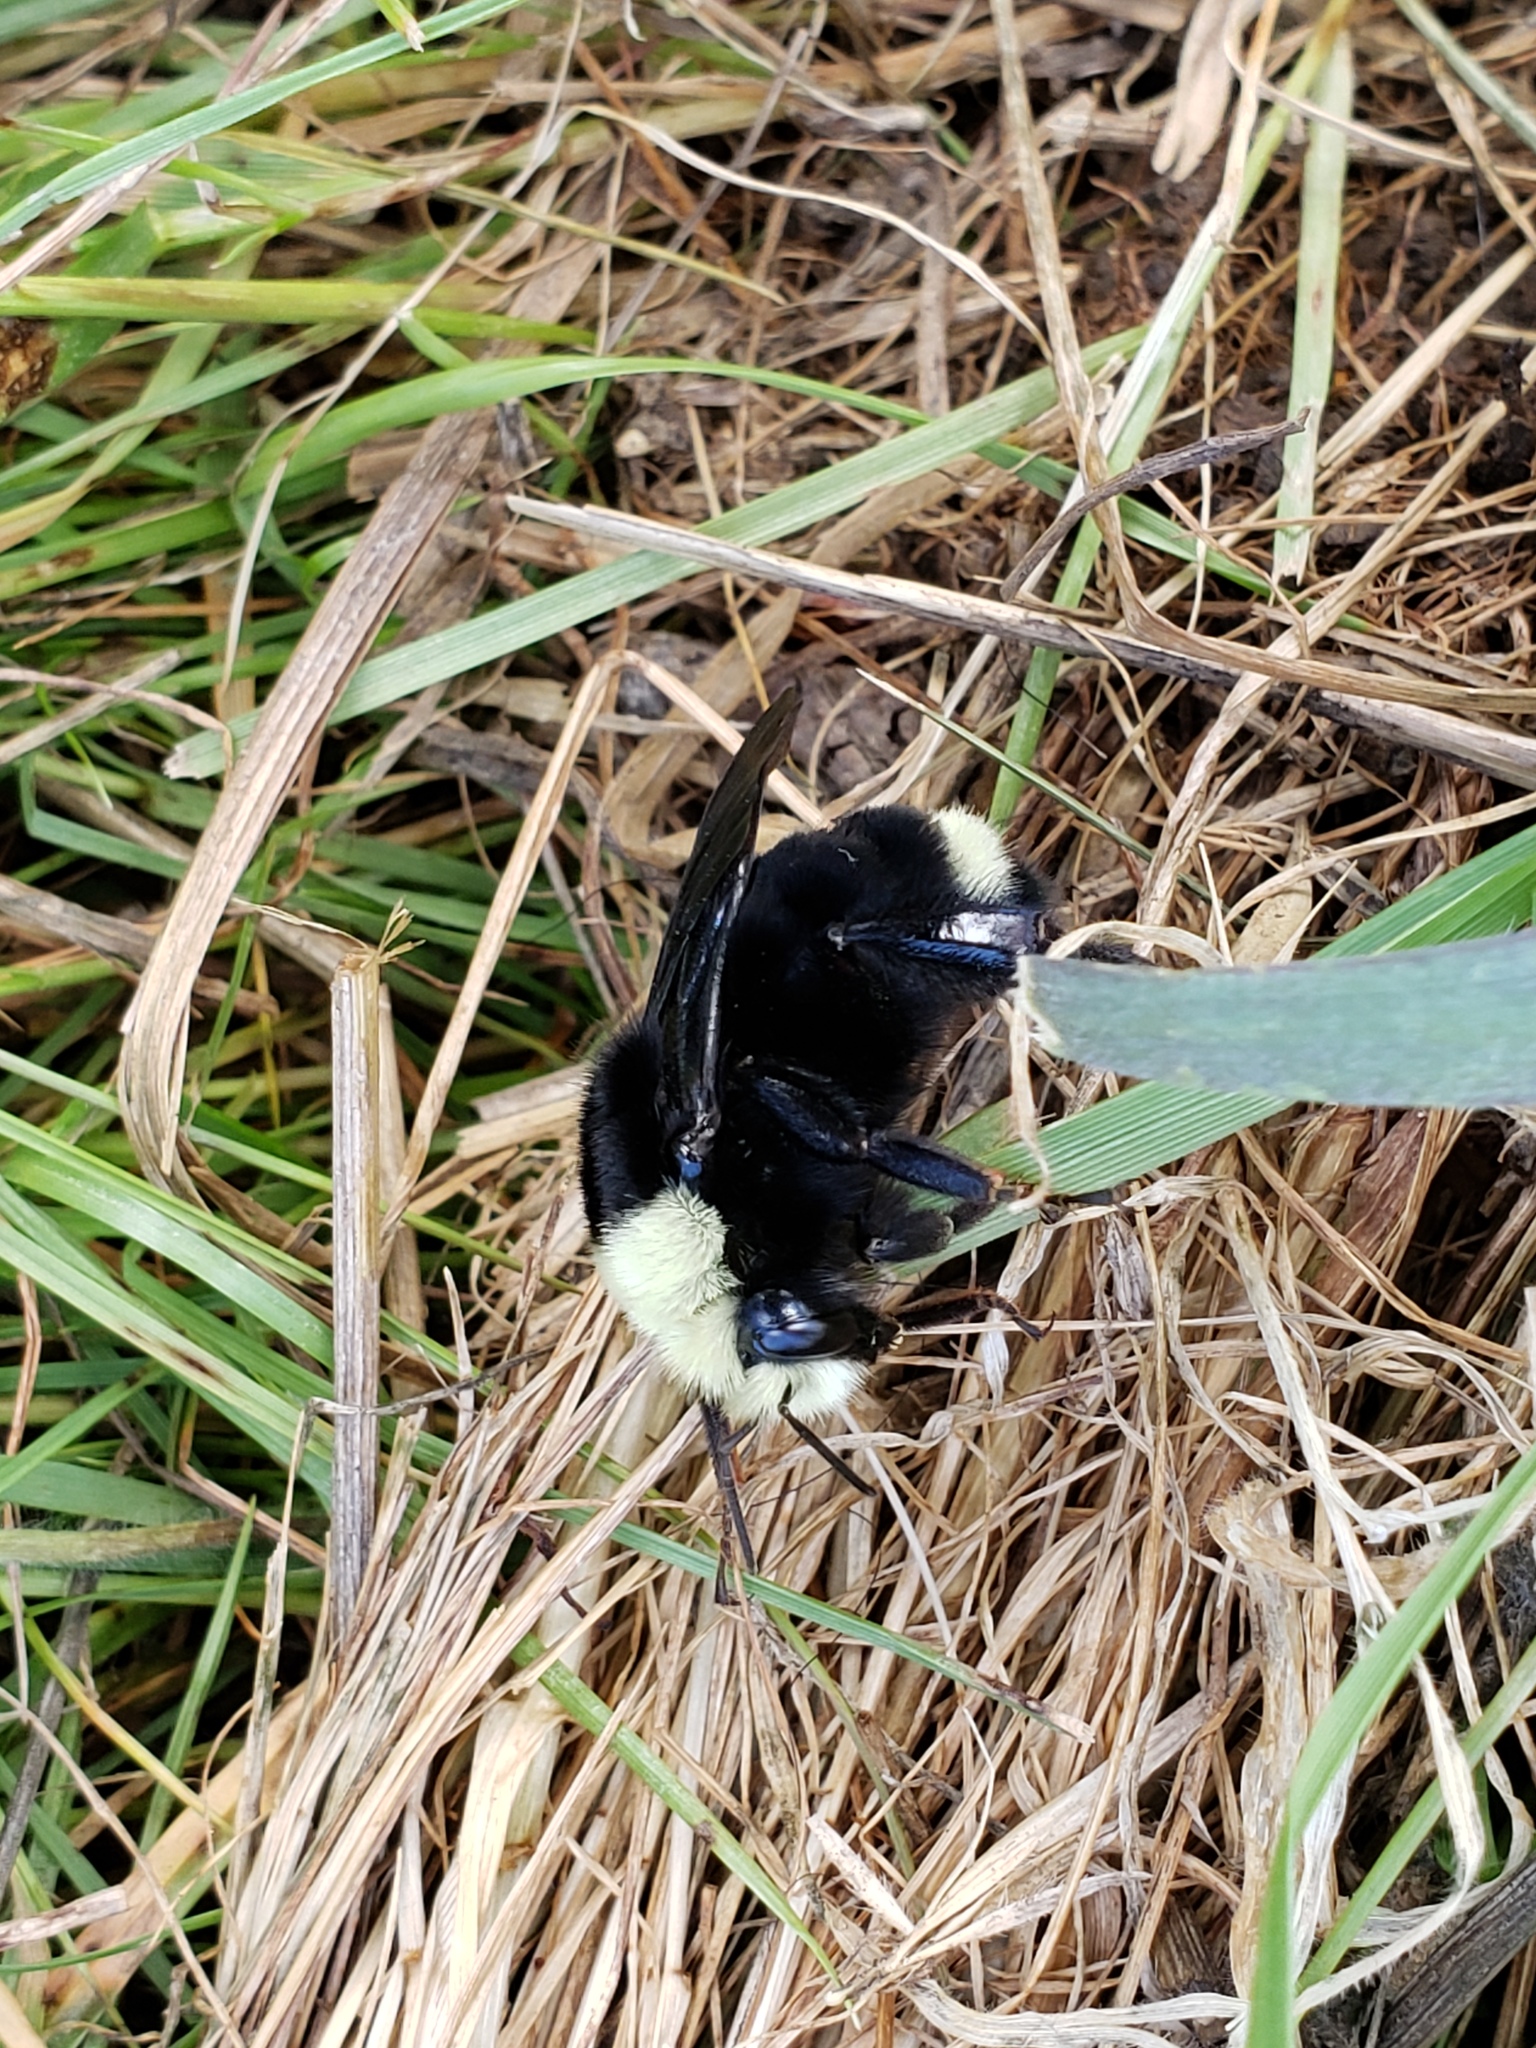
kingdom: Animalia
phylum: Arthropoda
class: Insecta
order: Hymenoptera
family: Apidae
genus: Bombus
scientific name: Bombus vosnesenskii
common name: Vosnesensky bumble bee
